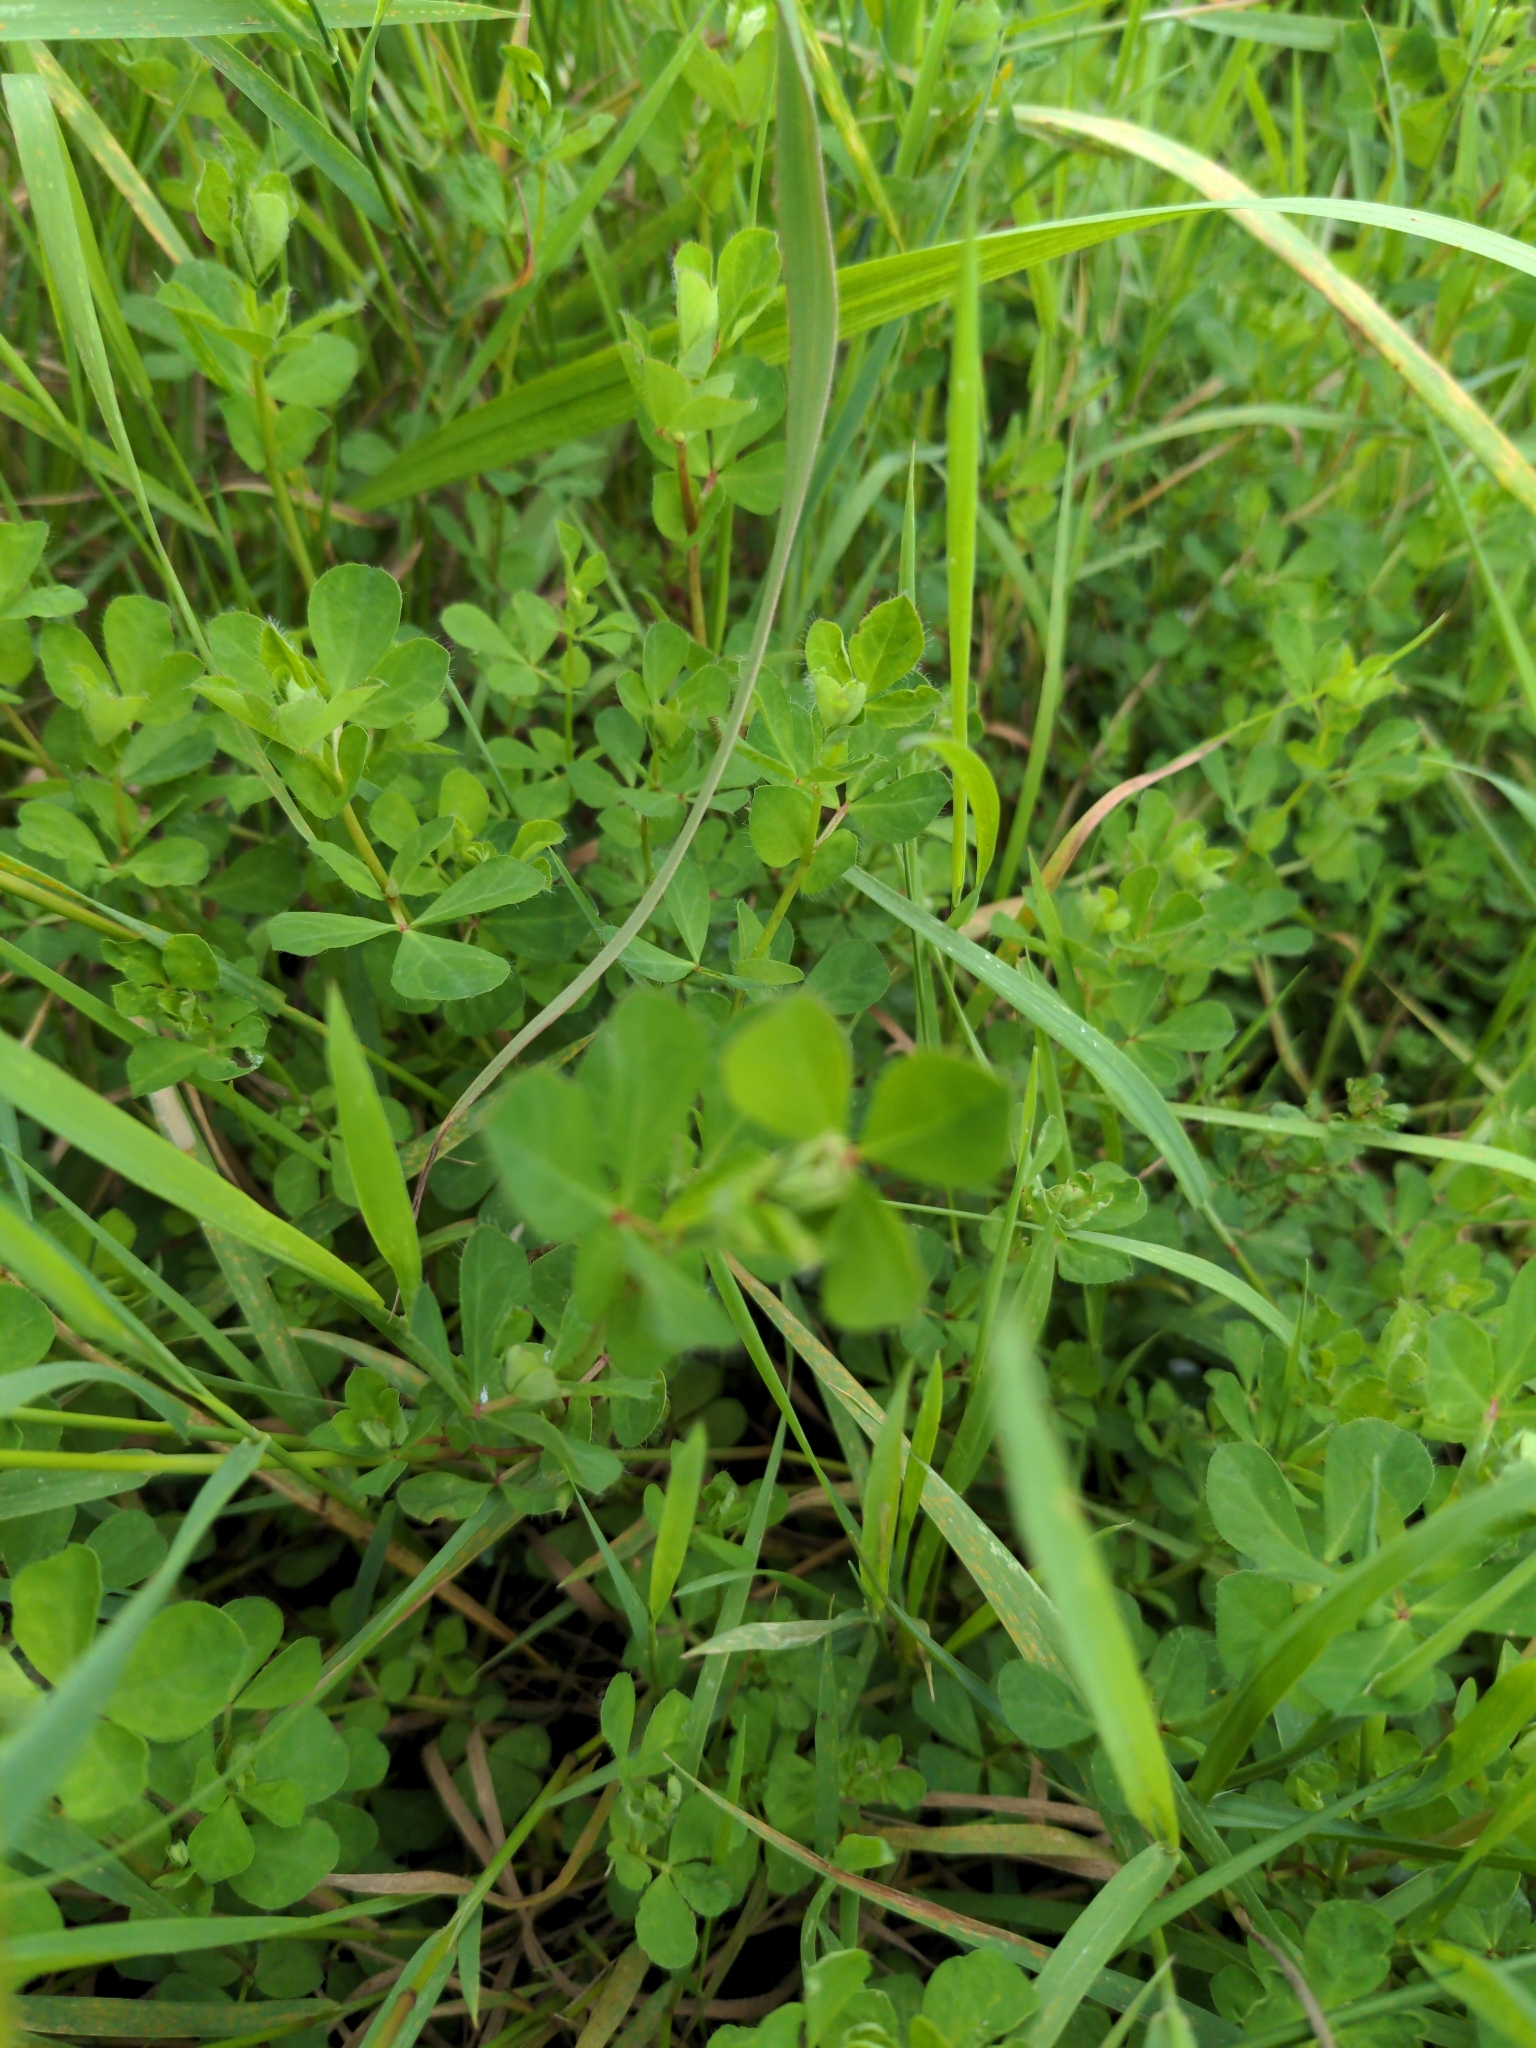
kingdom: Plantae
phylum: Tracheophyta
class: Magnoliopsida
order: Fabales
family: Fabaceae
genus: Lotus
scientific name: Lotus pedunculatus
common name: Greater birdsfoot-trefoil
